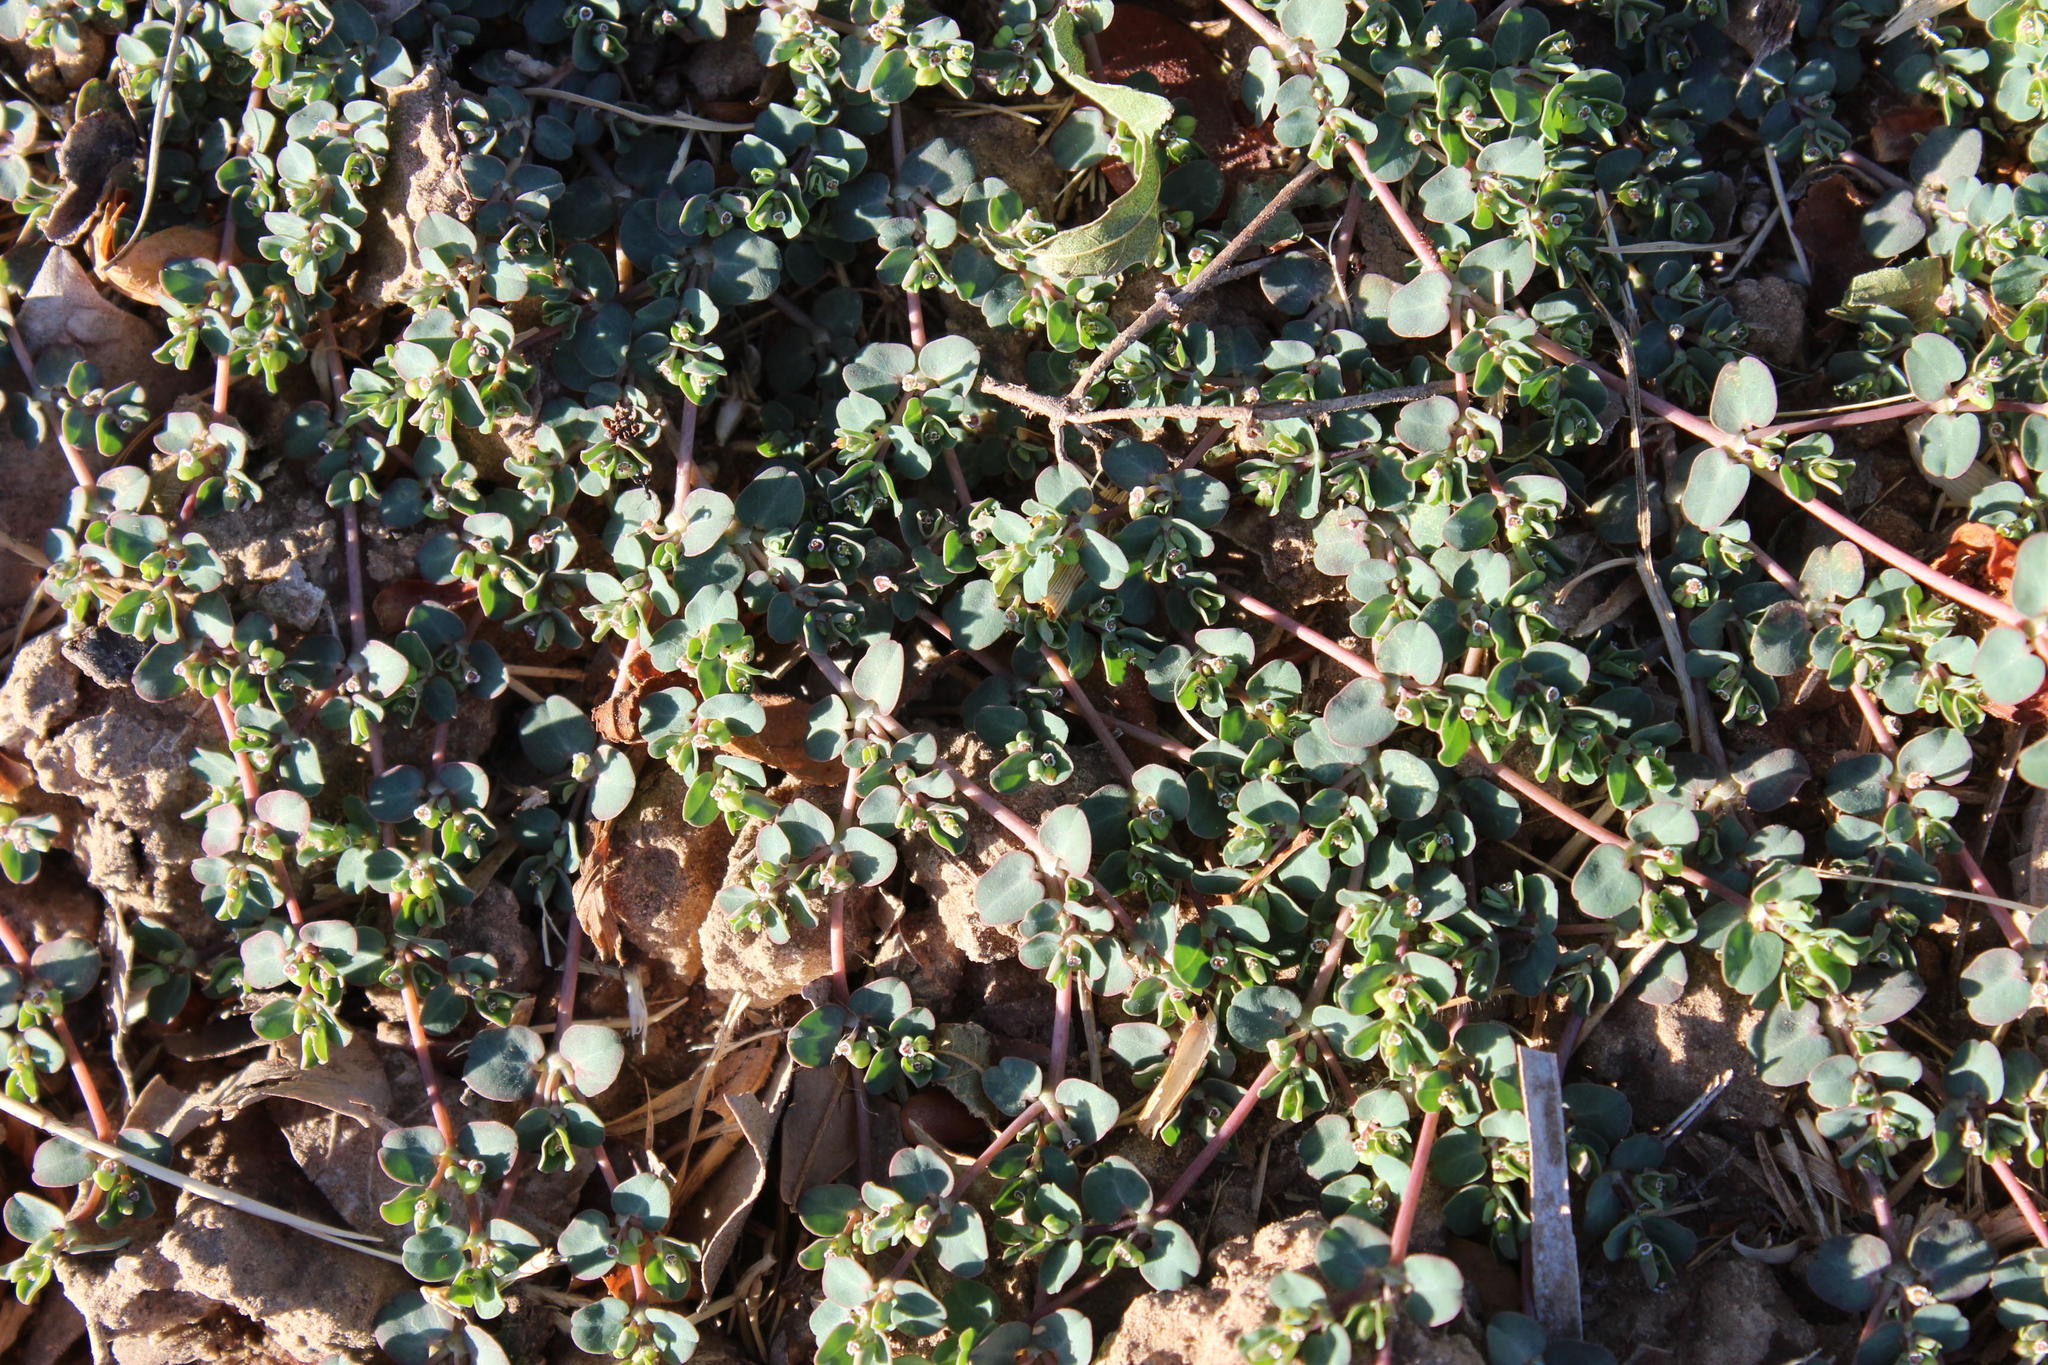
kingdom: Plantae
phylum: Tracheophyta
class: Magnoliopsida
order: Malpighiales
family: Euphorbiaceae
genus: Euphorbia
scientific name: Euphorbia serpens
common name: Matted sandmat
